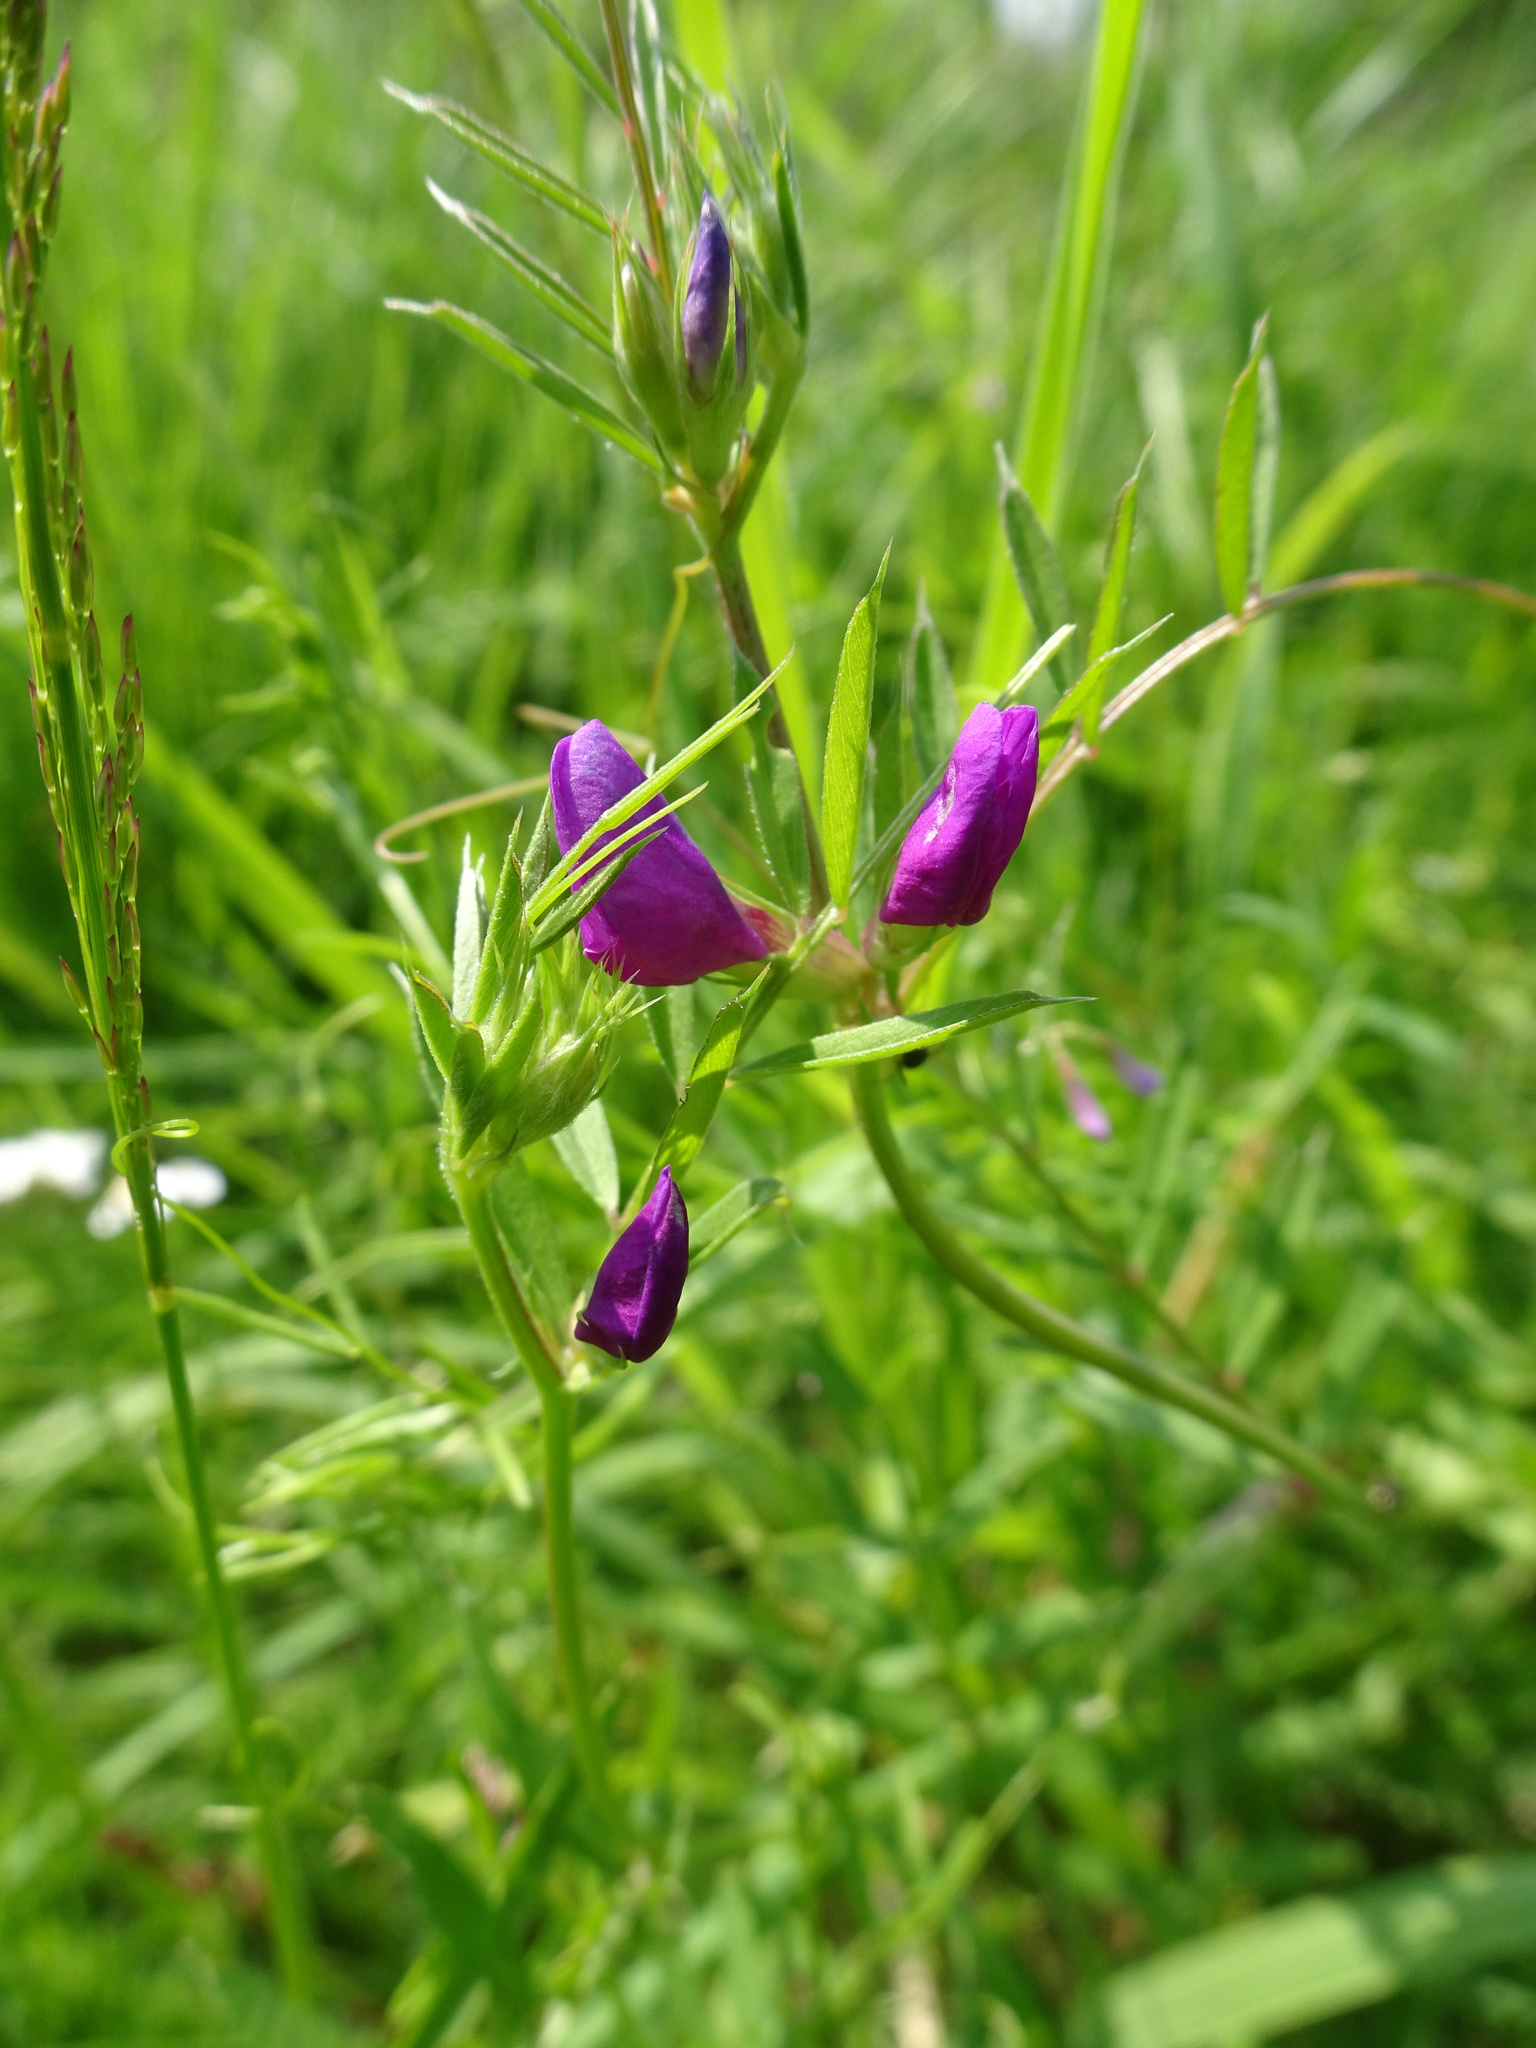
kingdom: Plantae
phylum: Tracheophyta
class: Magnoliopsida
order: Fabales
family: Fabaceae
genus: Vicia
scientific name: Vicia sativa
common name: Garden vetch
